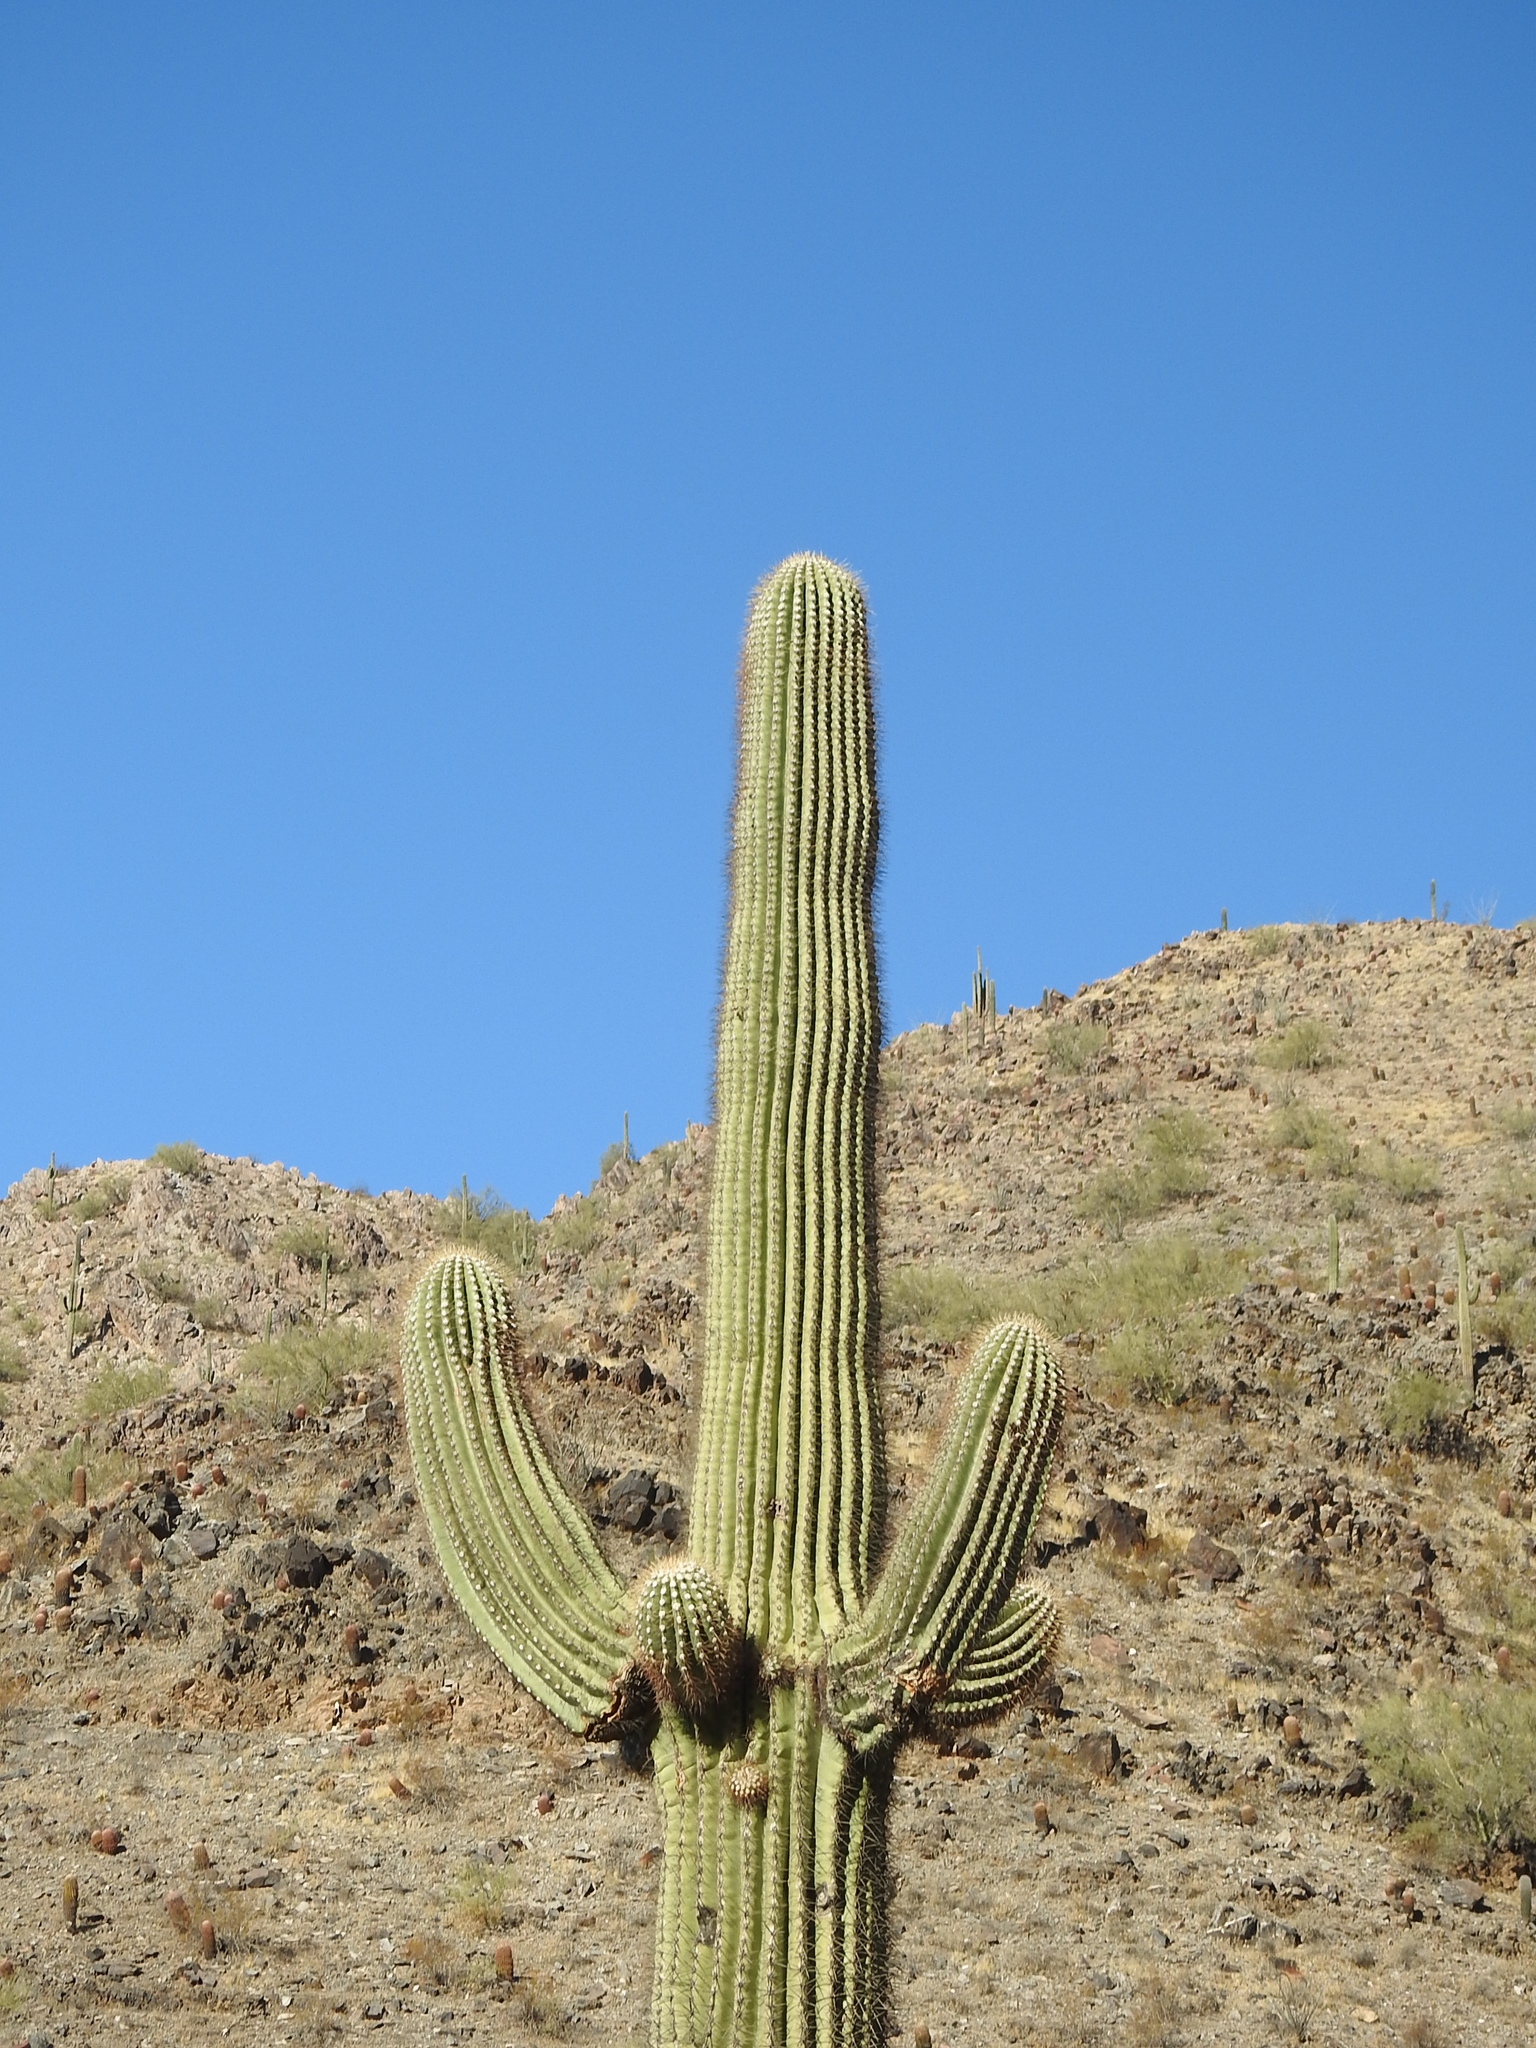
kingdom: Plantae
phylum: Tracheophyta
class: Magnoliopsida
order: Caryophyllales
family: Cactaceae
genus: Carnegiea
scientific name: Carnegiea gigantea
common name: Saguaro
